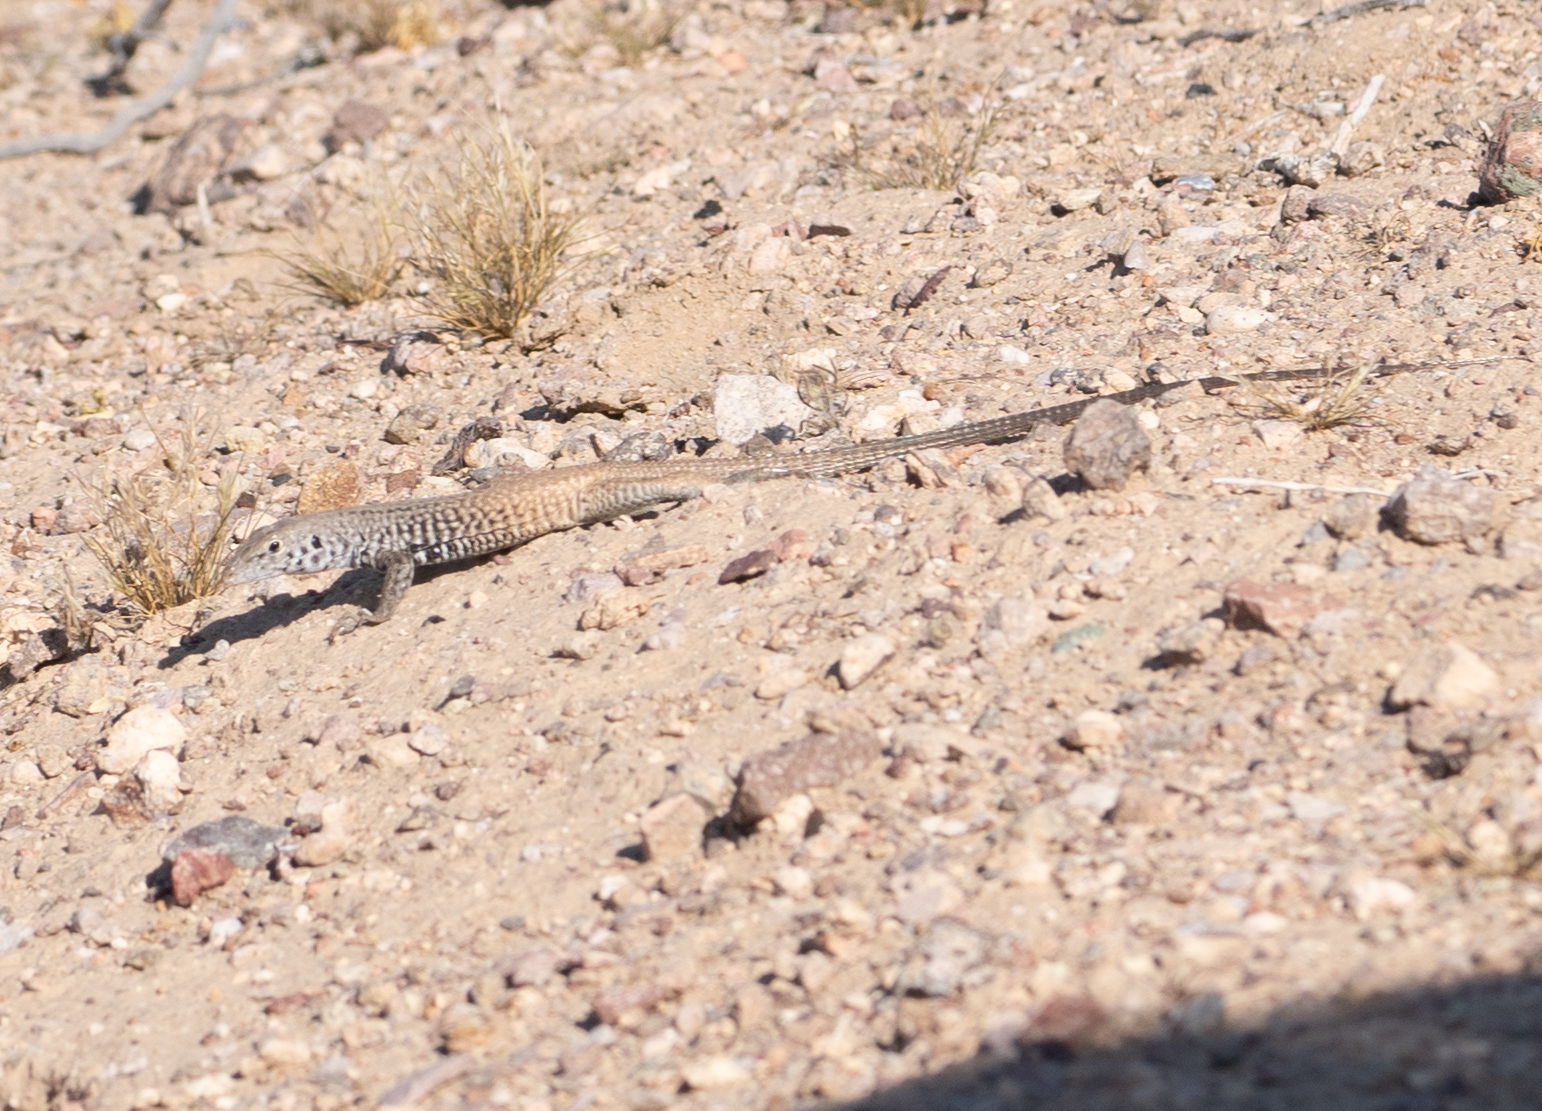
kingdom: Animalia
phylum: Chordata
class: Squamata
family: Teiidae
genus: Aspidoscelis
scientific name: Aspidoscelis tigris
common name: Tiger whiptail
